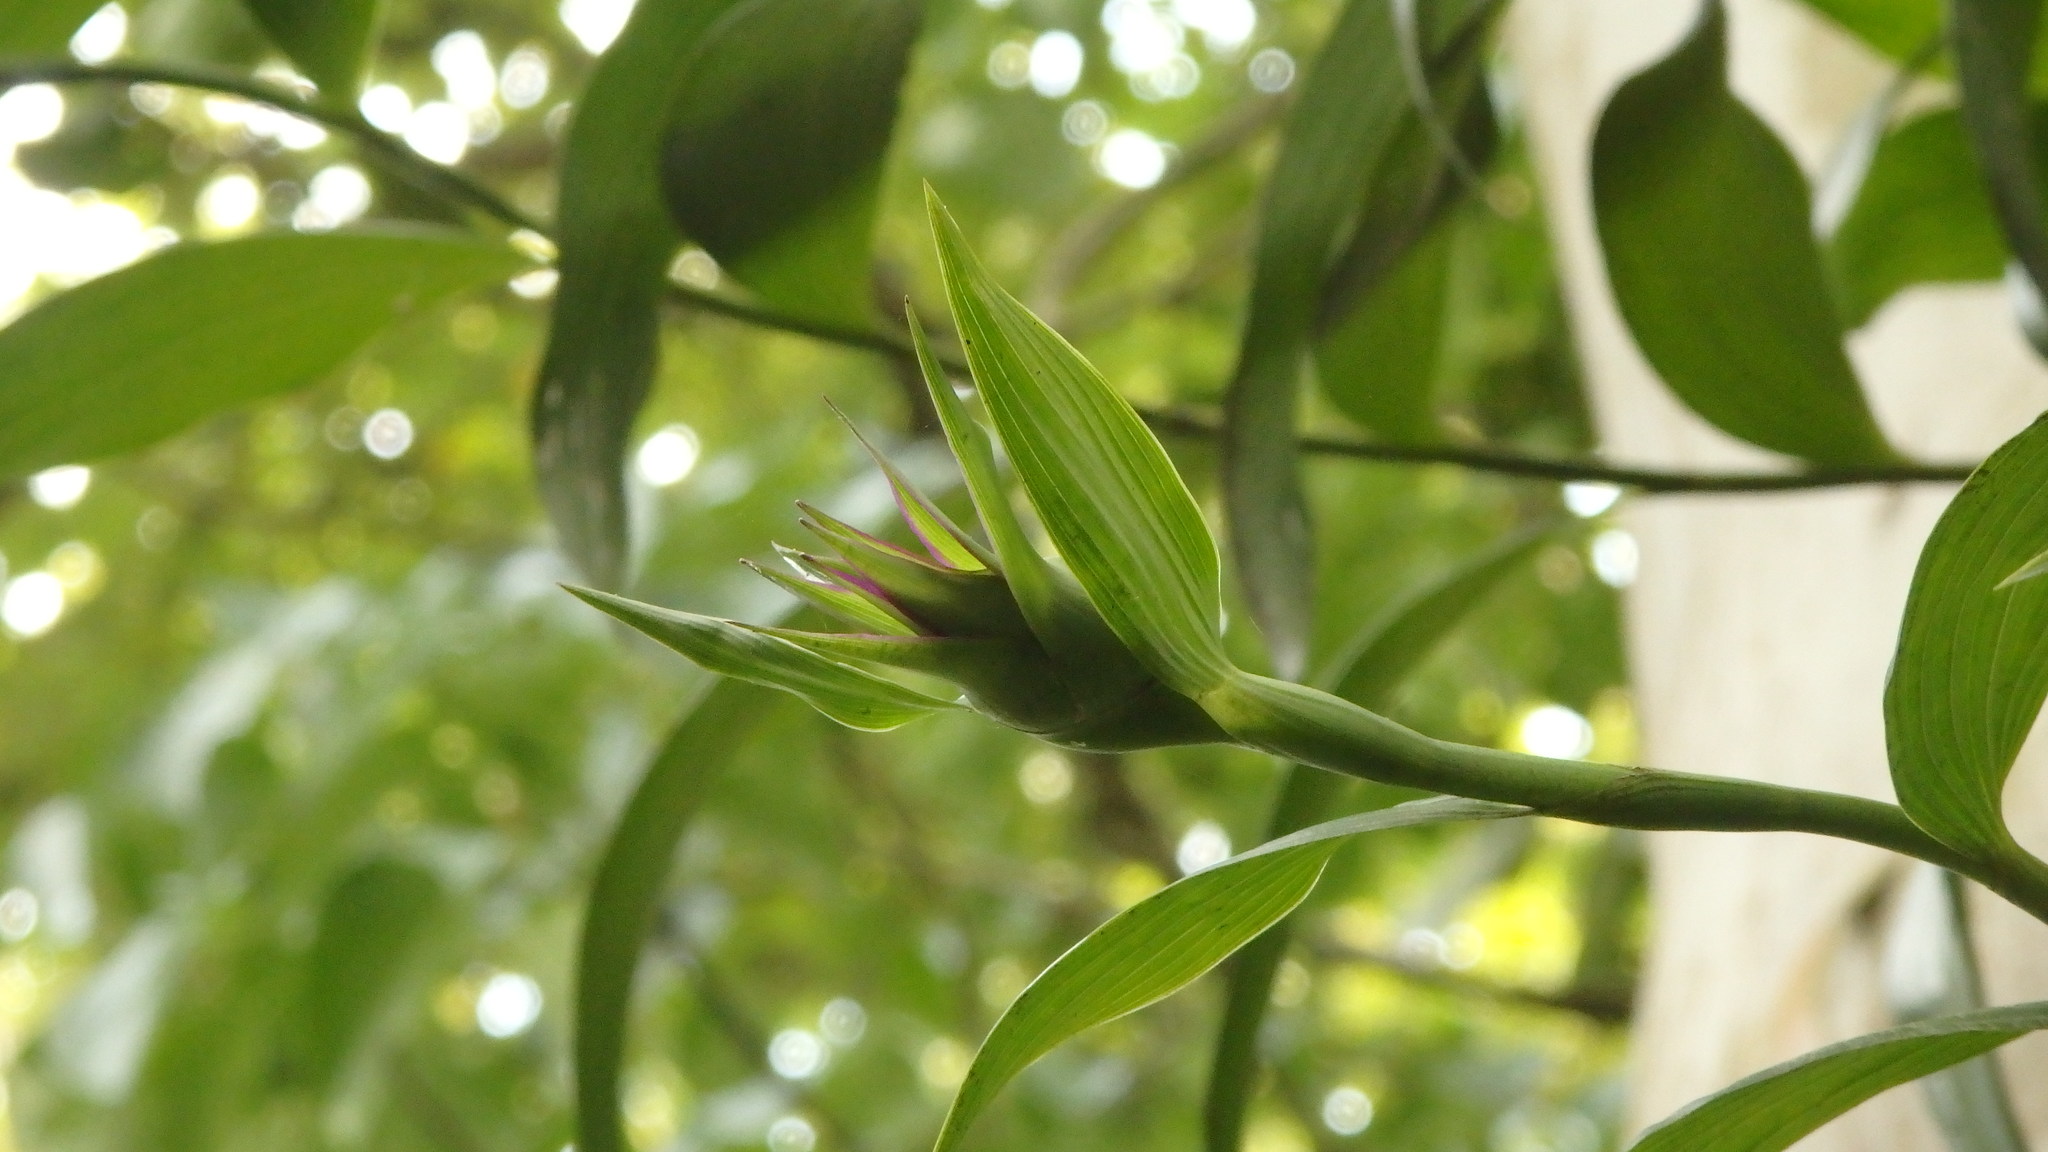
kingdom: Plantae
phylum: Tracheophyta
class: Liliopsida
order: Asparagales
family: Orchidaceae
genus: Elleanthus
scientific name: Elleanthus capitatus
